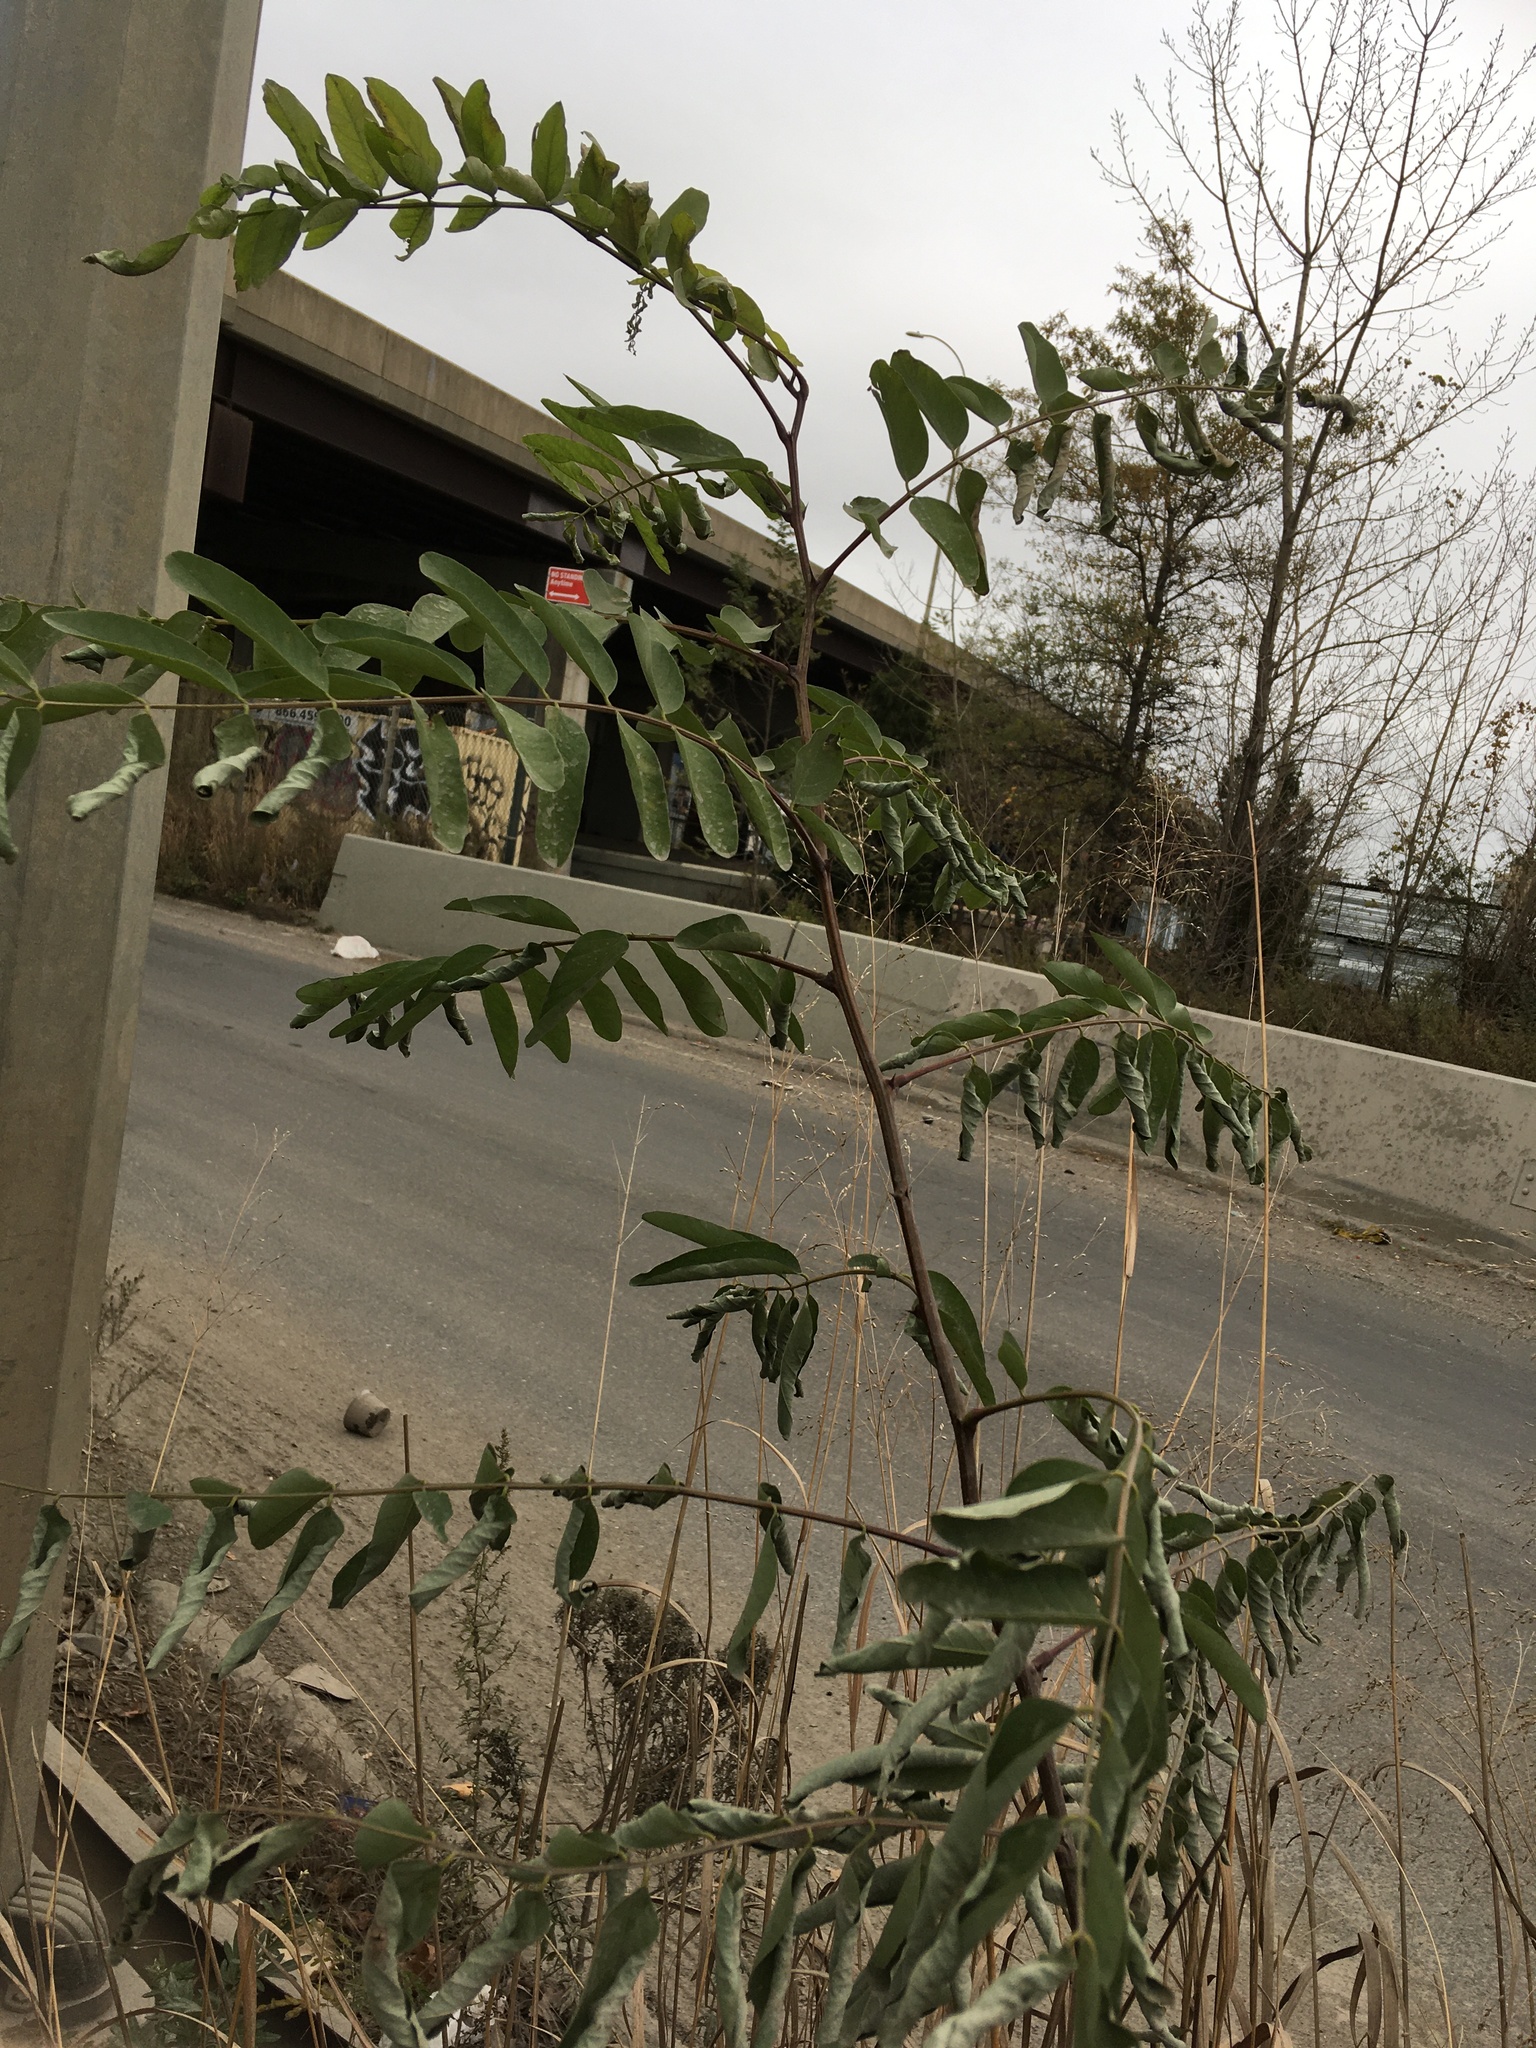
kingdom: Plantae
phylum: Tracheophyta
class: Magnoliopsida
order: Fabales
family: Fabaceae
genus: Robinia
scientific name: Robinia pseudoacacia
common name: Black locust
